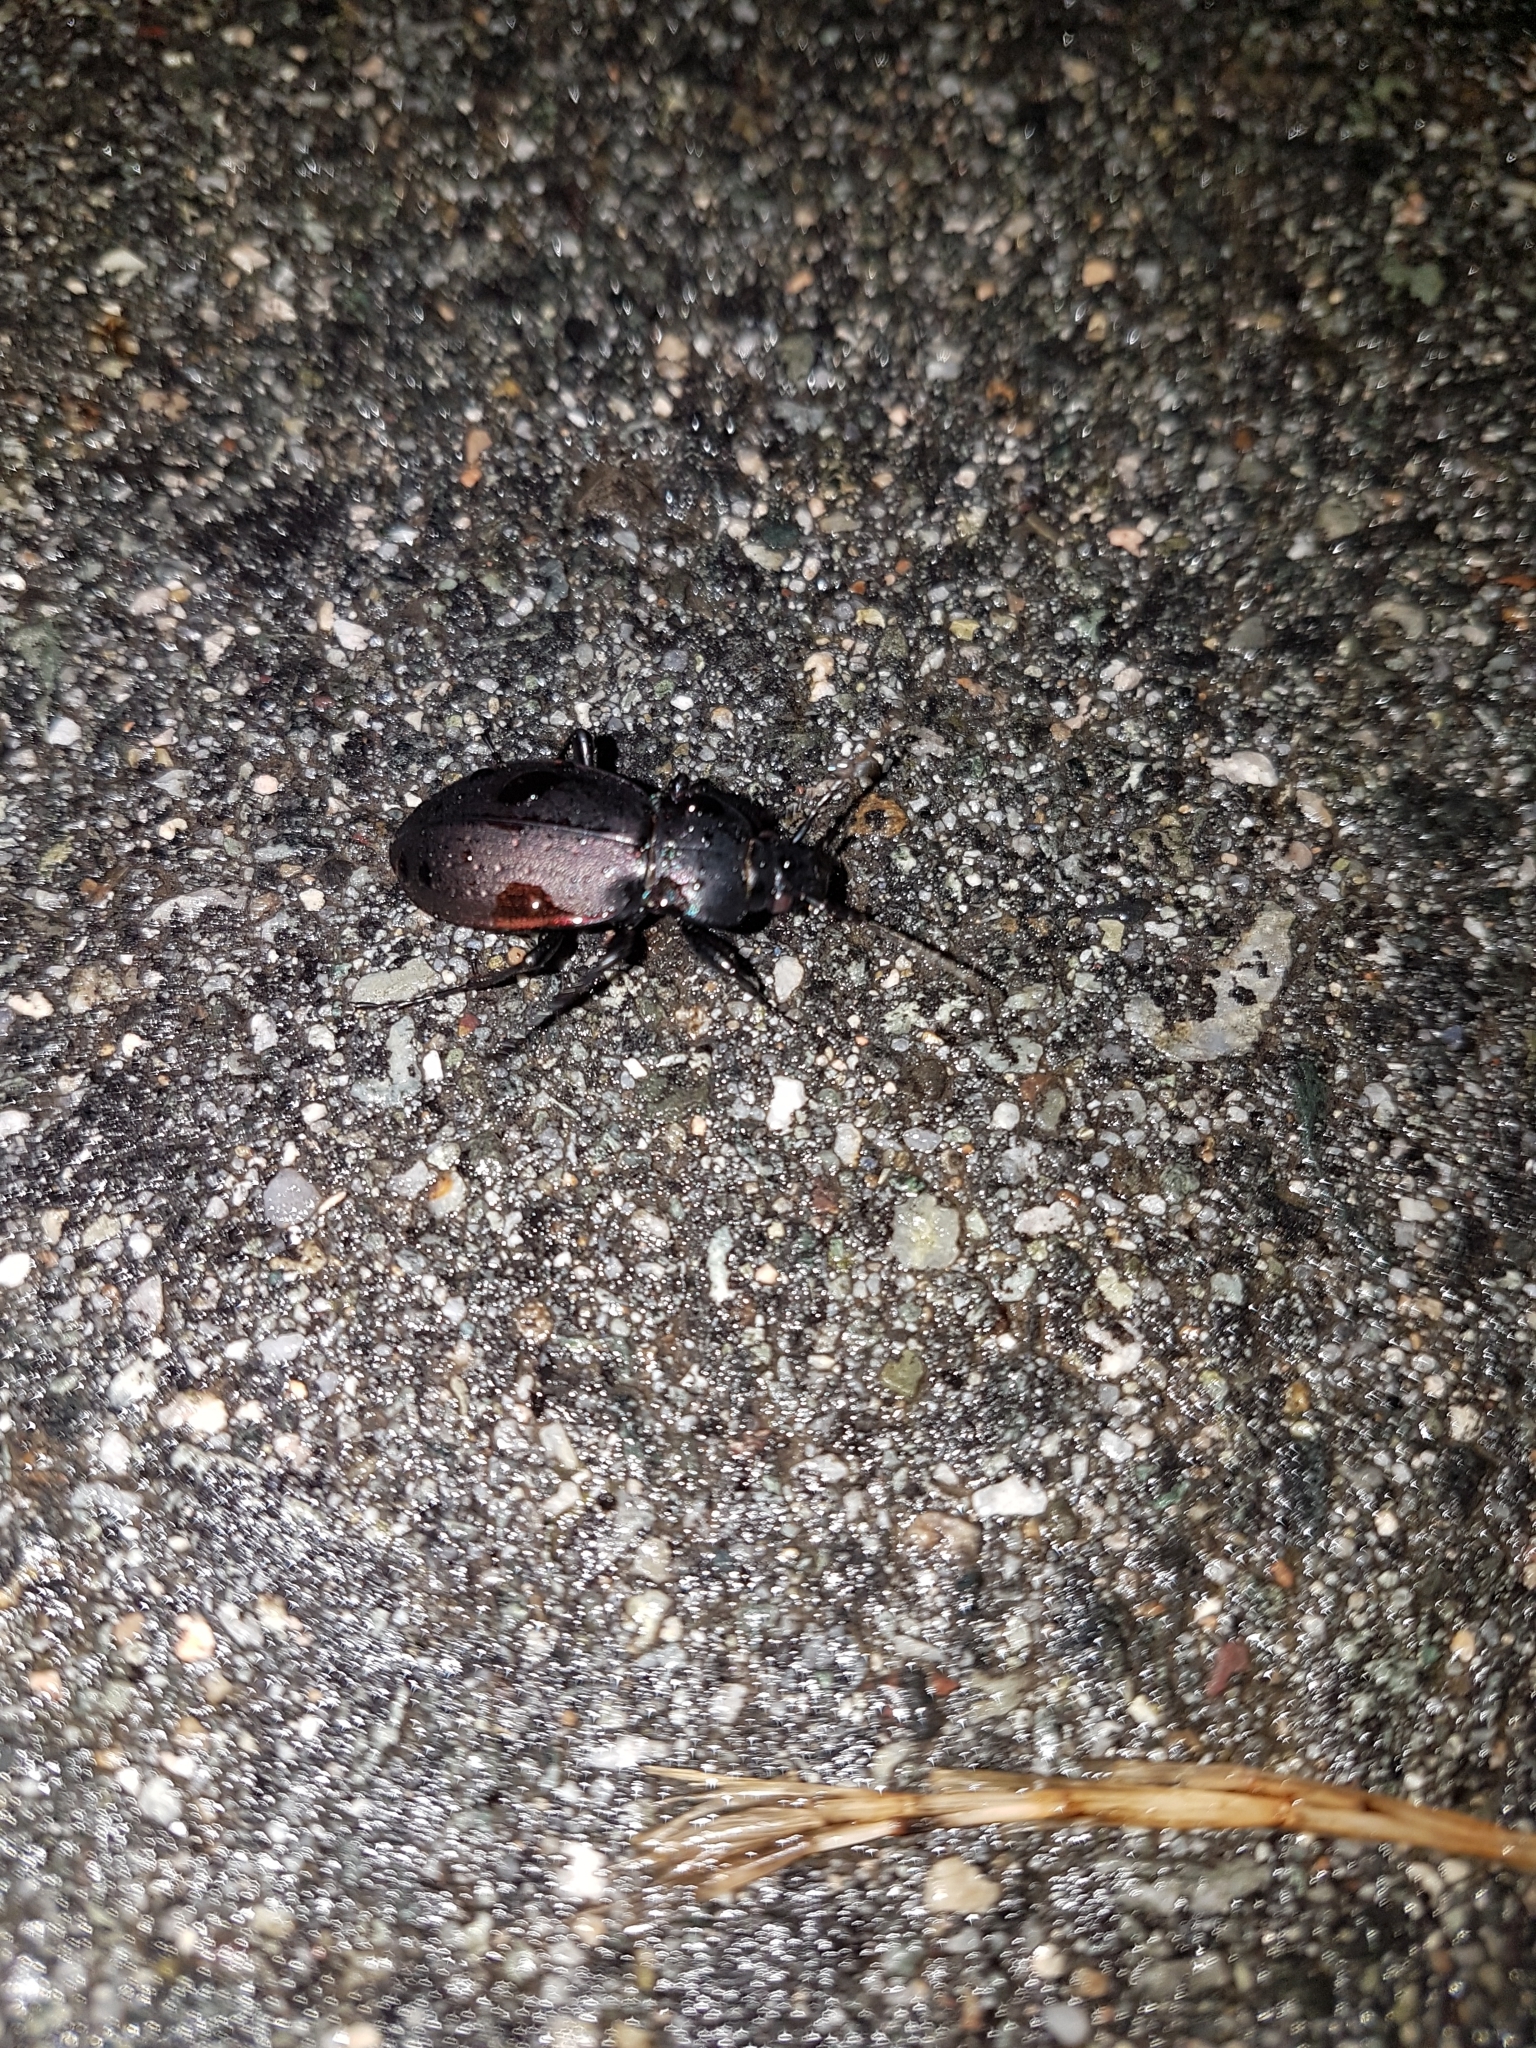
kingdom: Animalia
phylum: Arthropoda
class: Insecta
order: Coleoptera
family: Carabidae
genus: Carabus
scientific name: Carabus nemoralis
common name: European ground beetle
